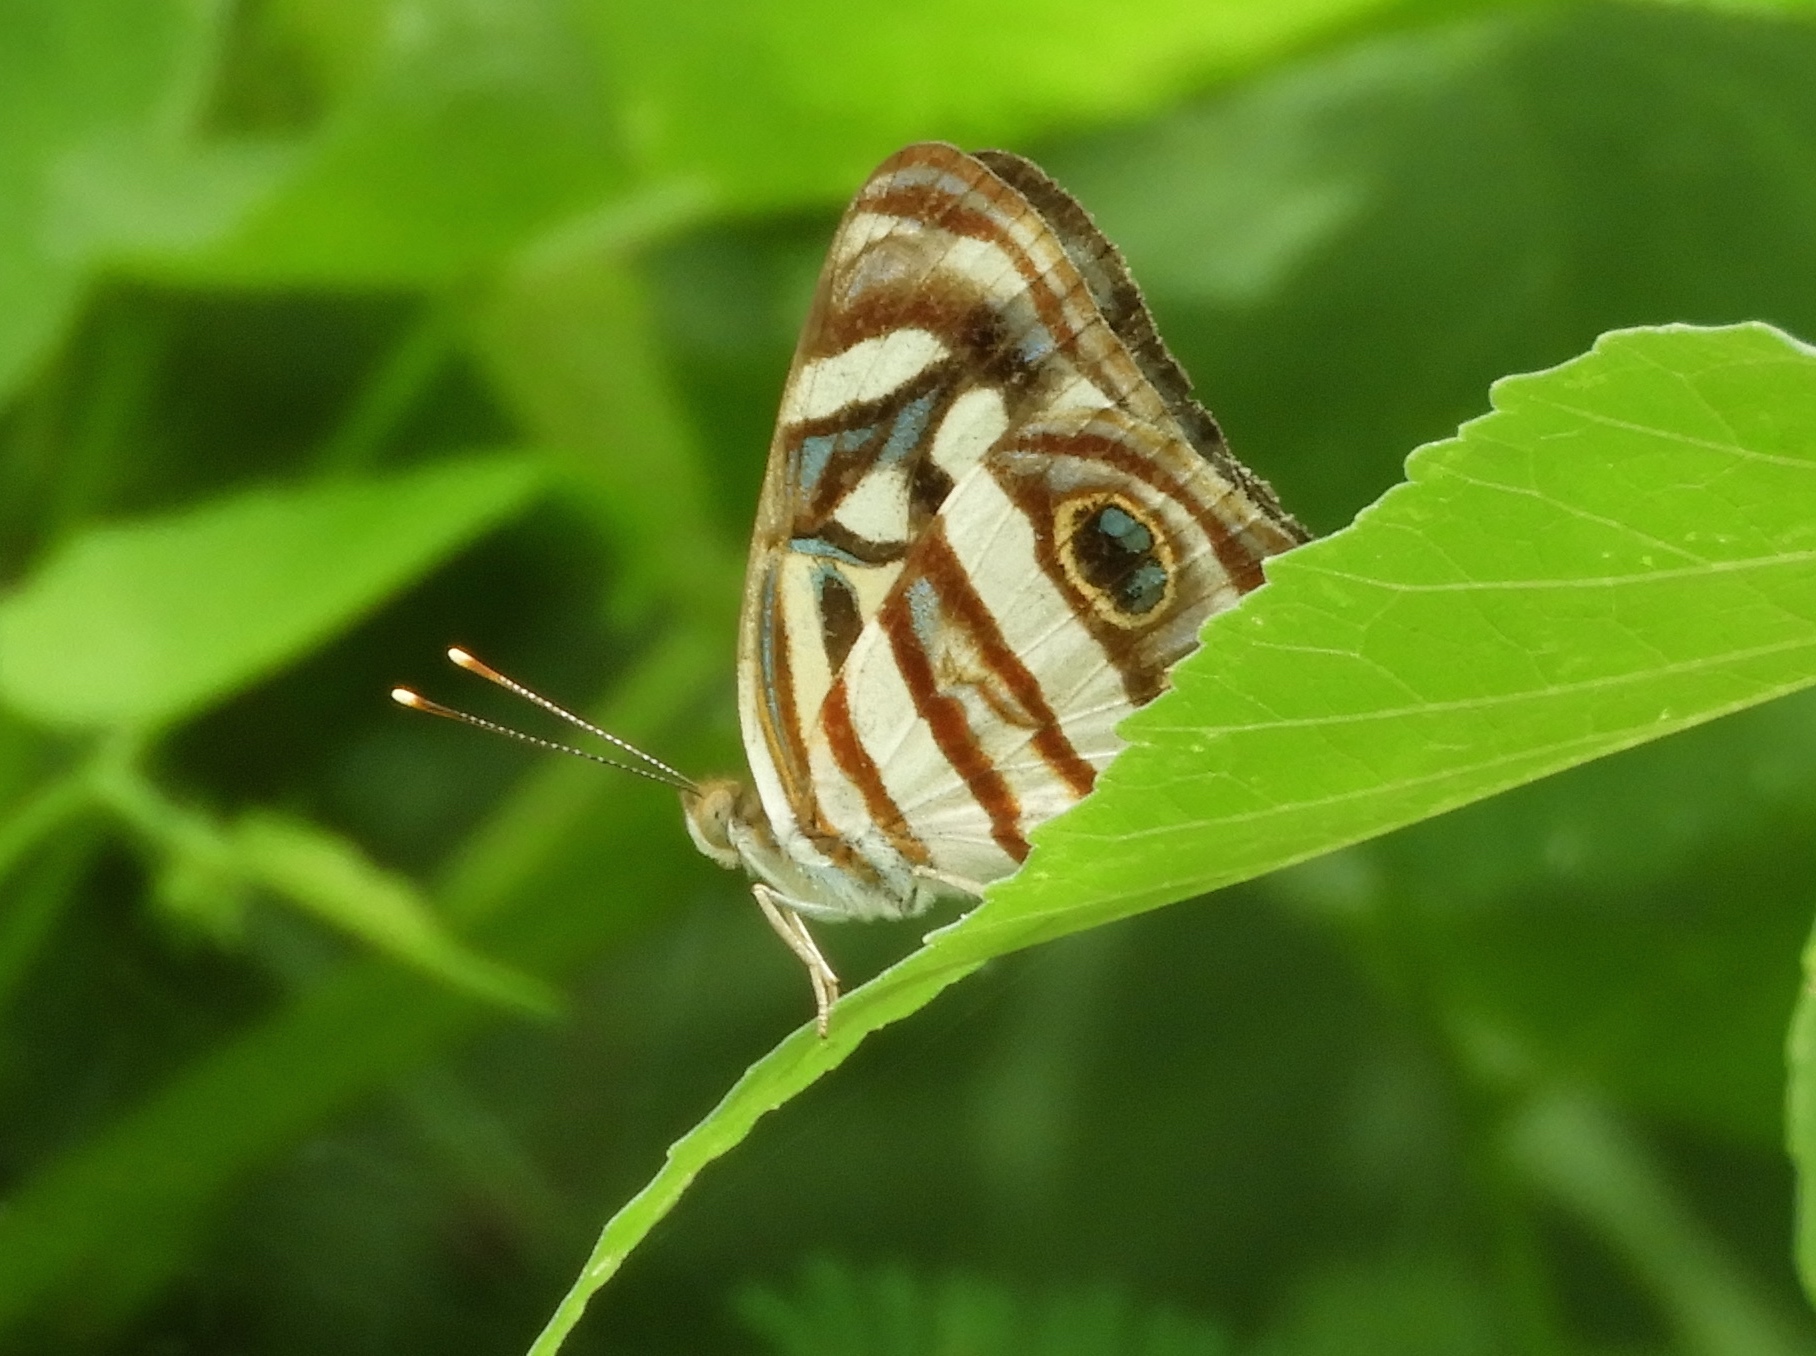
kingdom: Animalia
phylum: Arthropoda
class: Insecta
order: Lepidoptera
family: Nymphalidae
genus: Dynamine
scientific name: Dynamine mylitta
